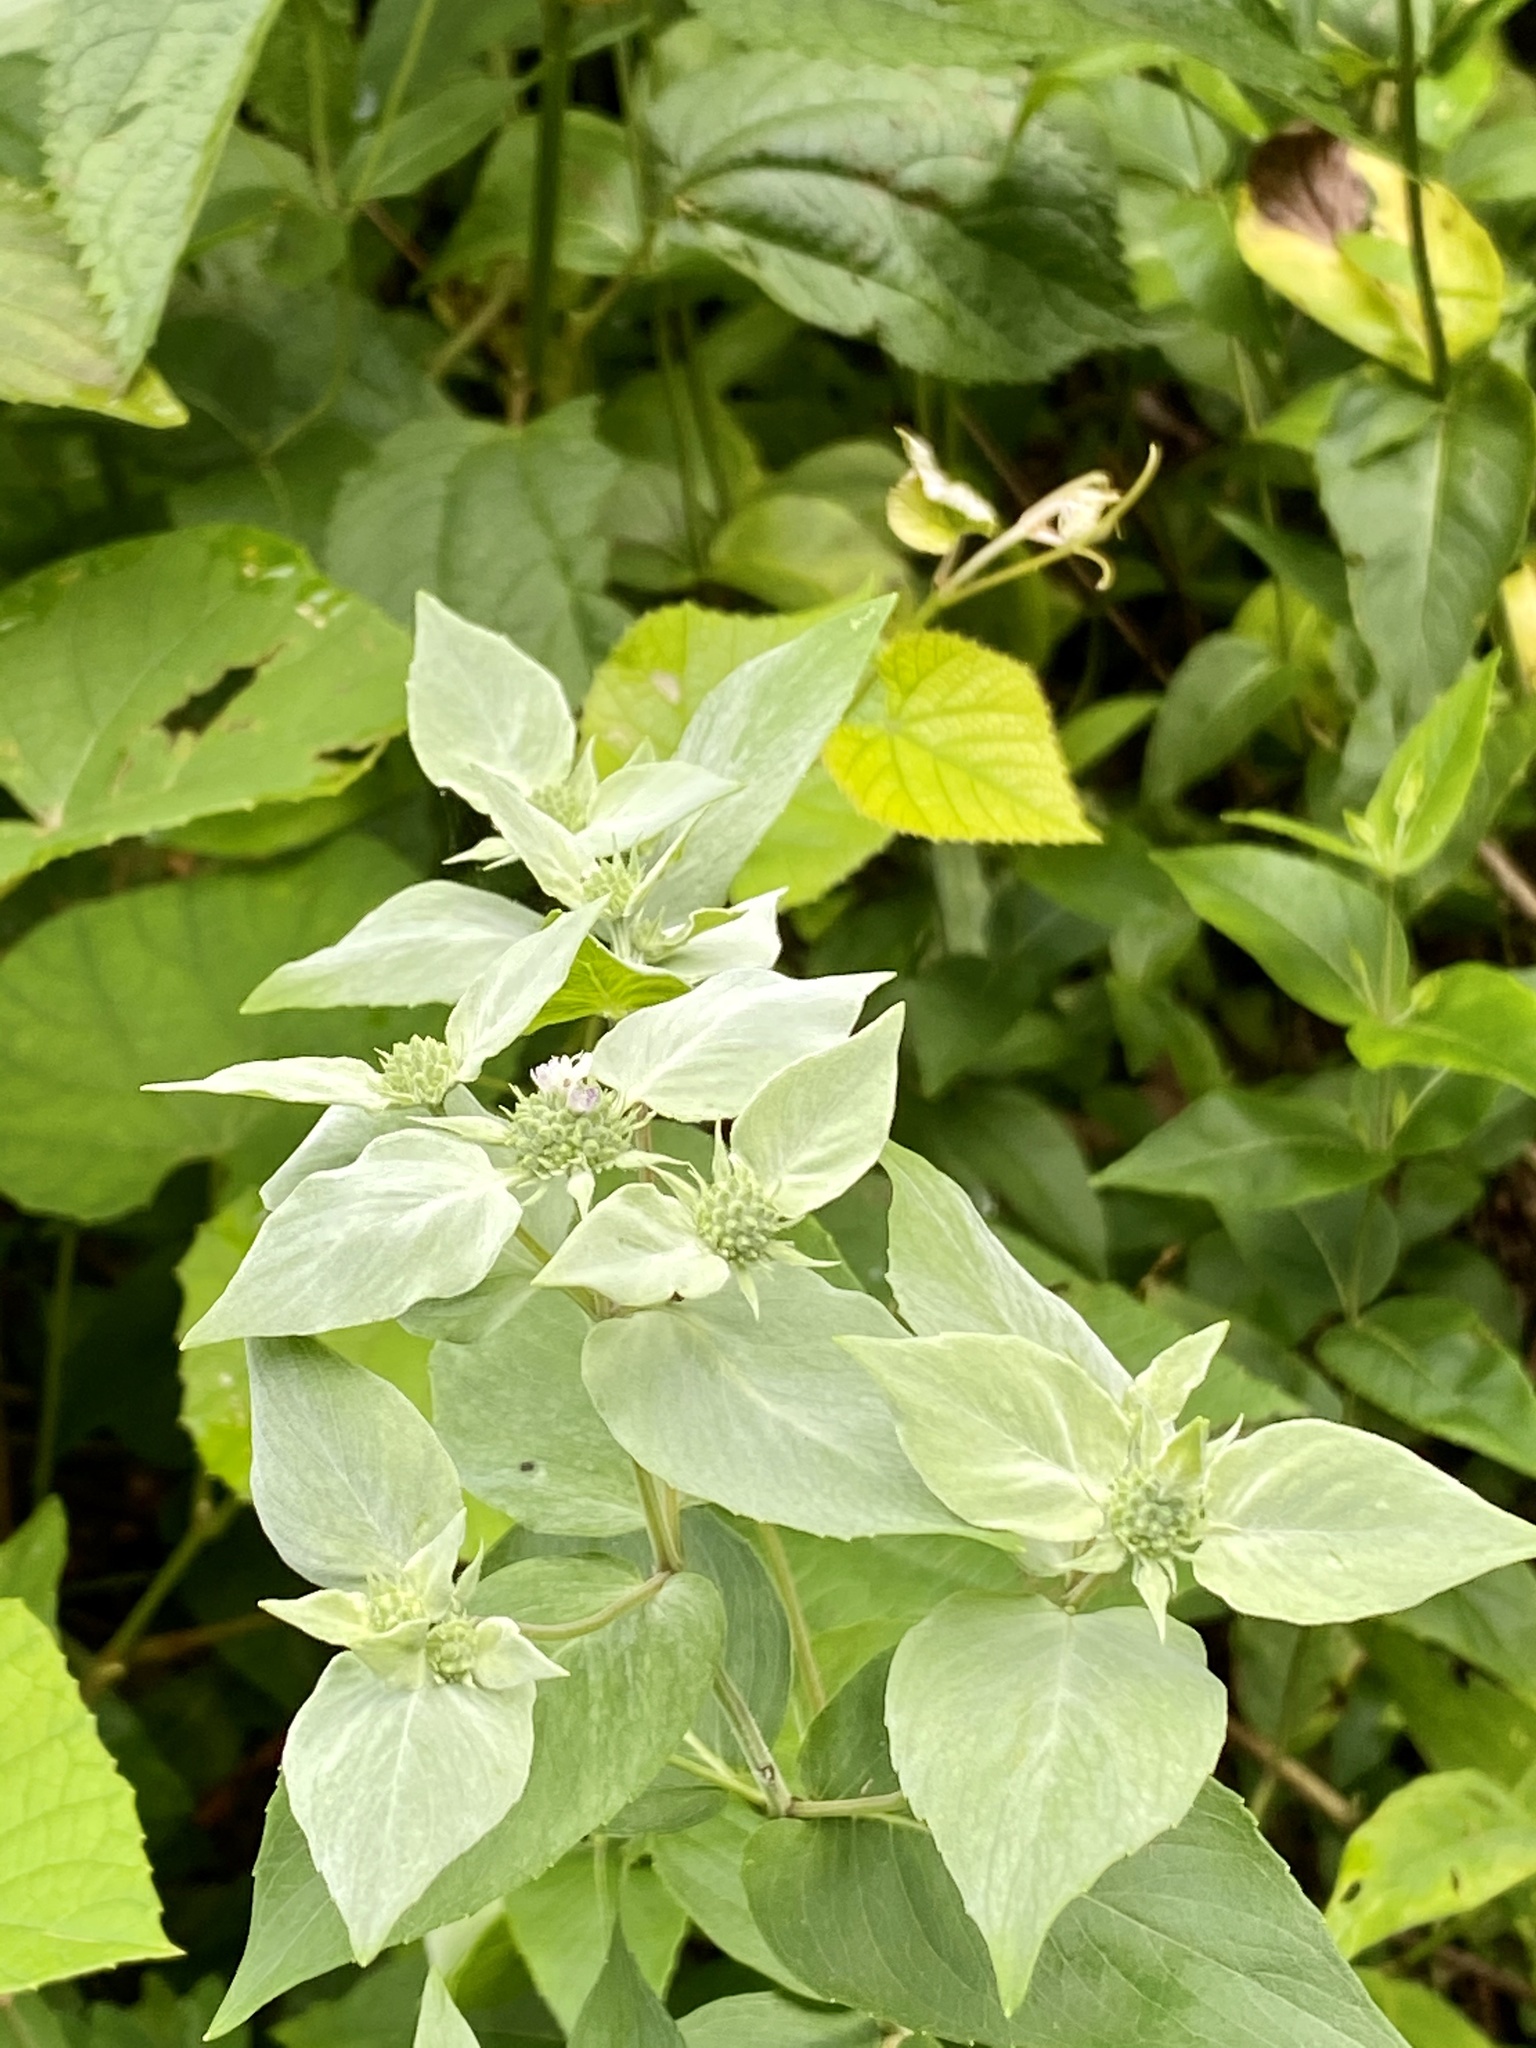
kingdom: Plantae
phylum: Tracheophyta
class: Magnoliopsida
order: Lamiales
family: Lamiaceae
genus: Pycnanthemum
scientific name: Pycnanthemum muticum
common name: Blunt mountain-mint
